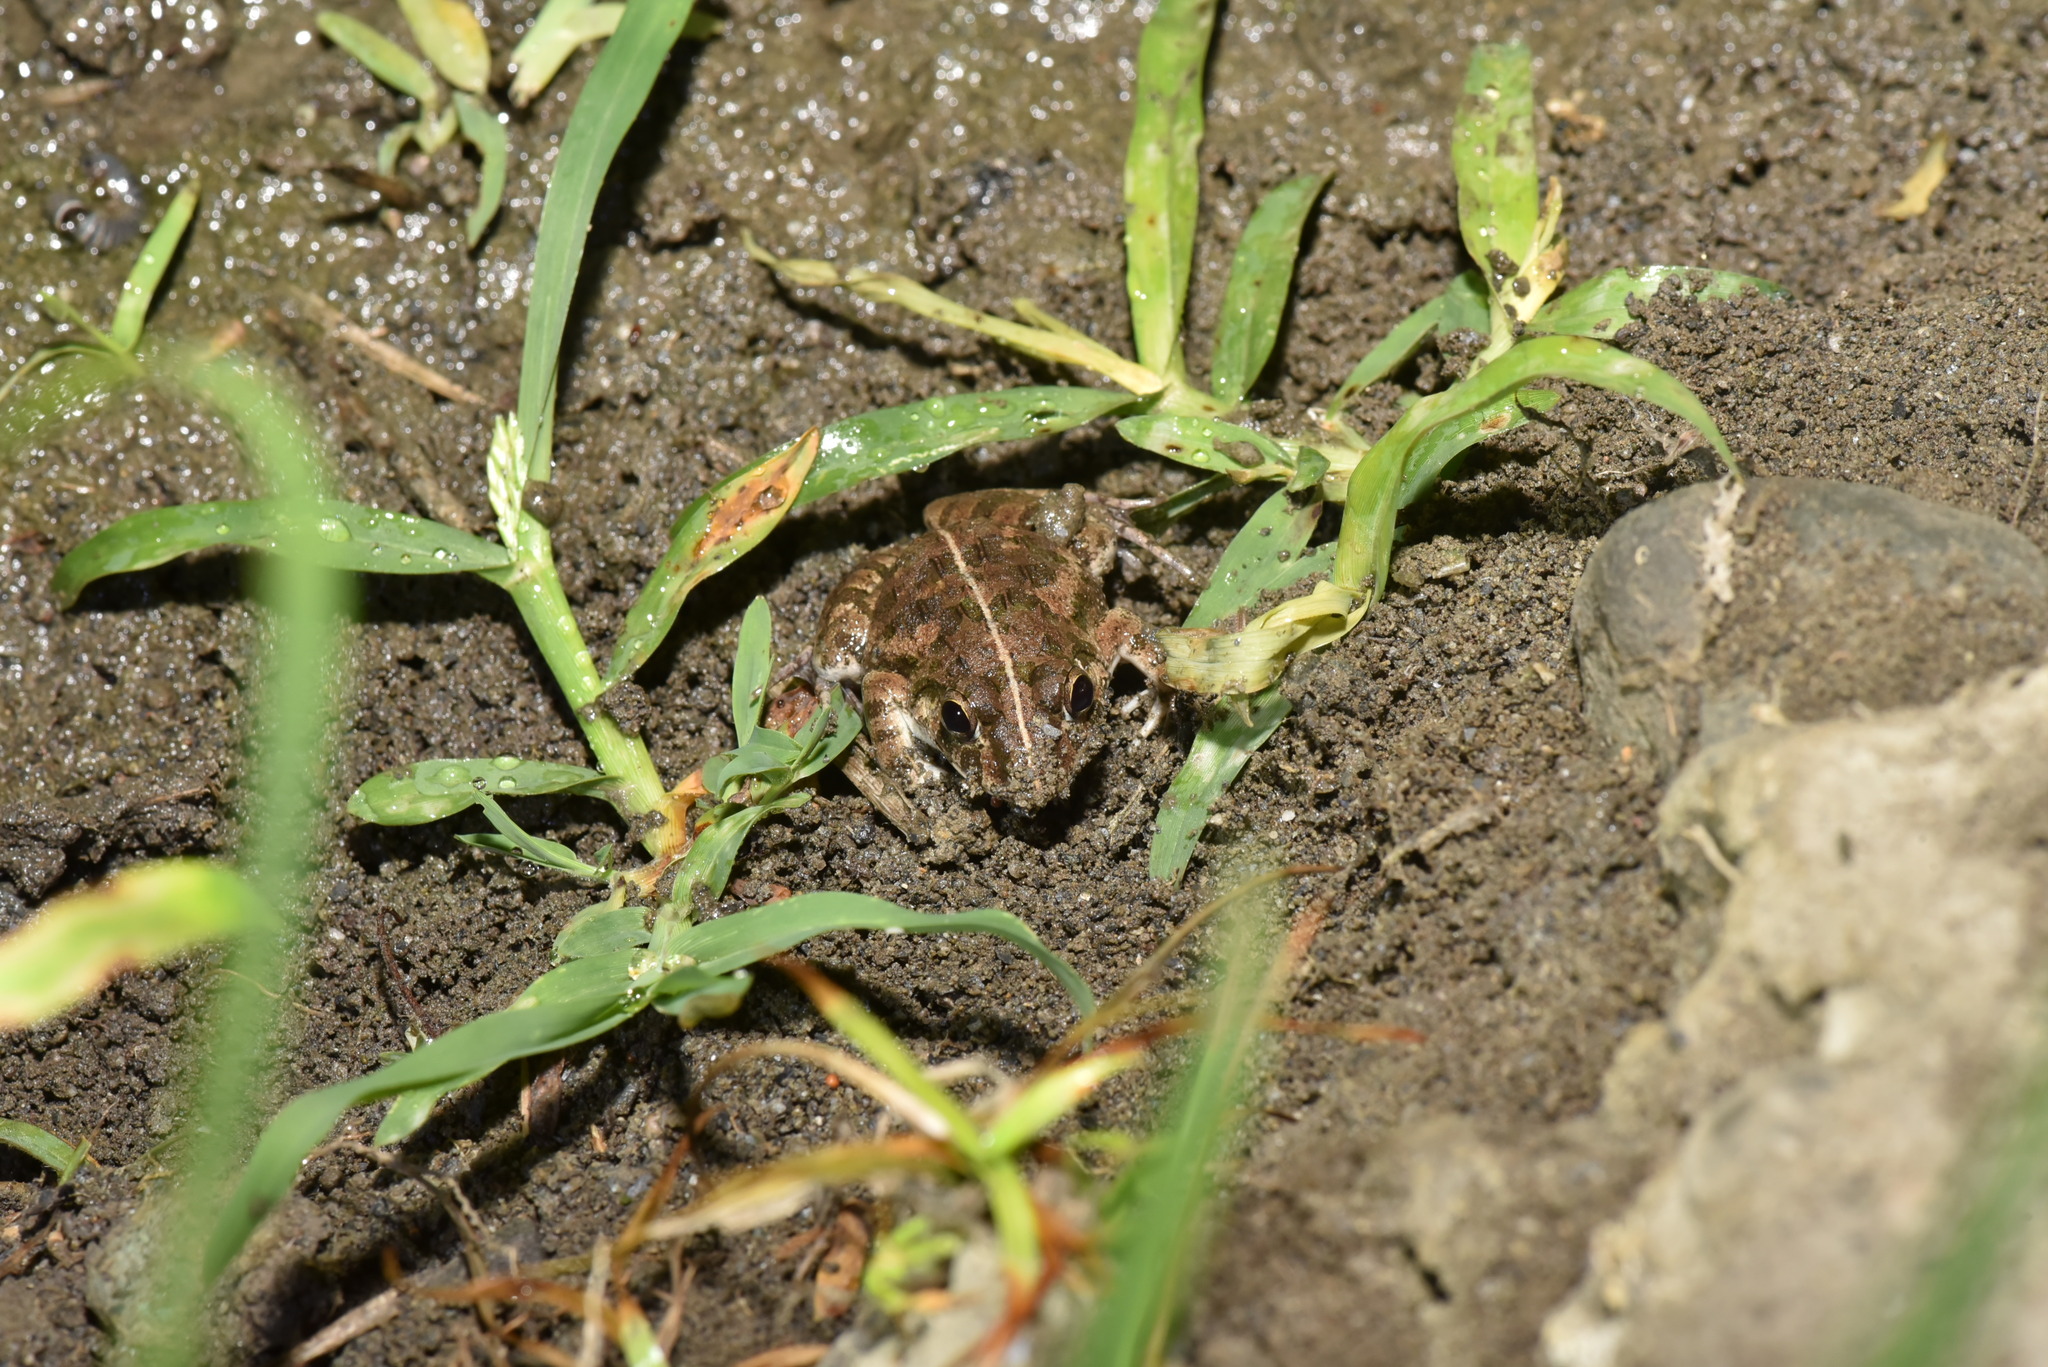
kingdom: Animalia
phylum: Chordata
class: Amphibia
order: Anura
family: Dicroglossidae
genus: Fejervarya
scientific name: Fejervarya limnocharis
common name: Asian grass frog/common pond frog/field frog/grass frog/indian rice frog
